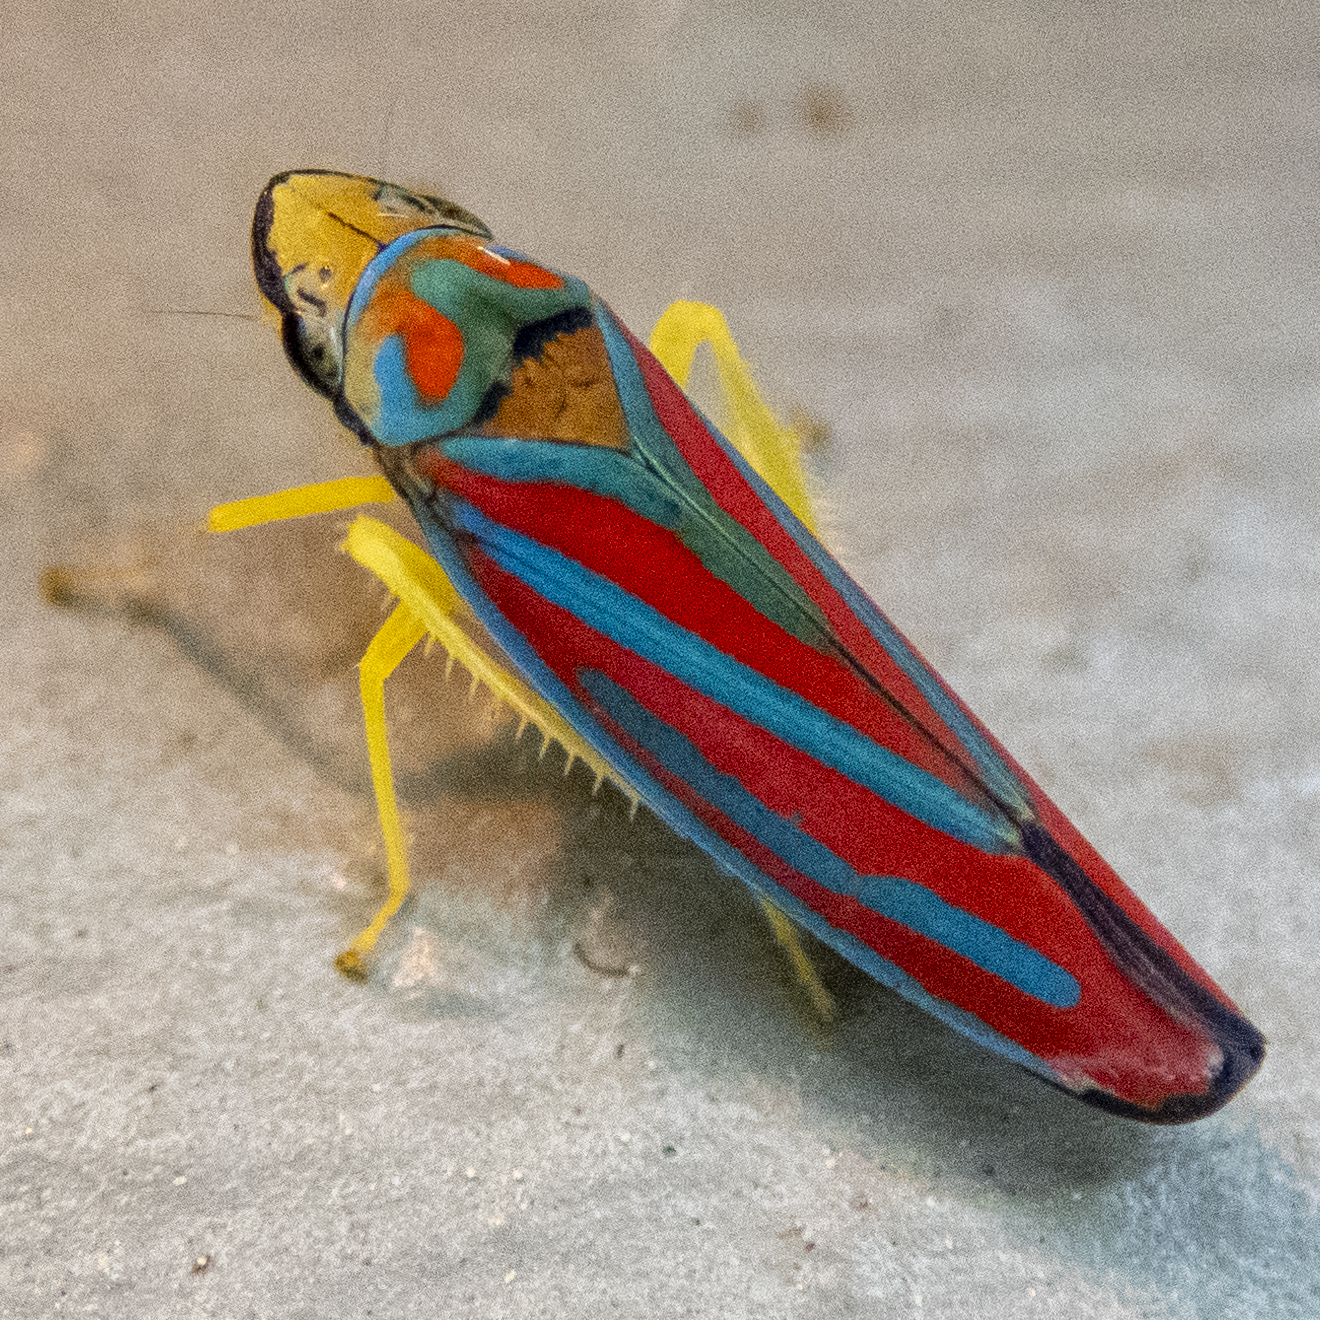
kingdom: Animalia
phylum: Arthropoda
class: Insecta
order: Hemiptera
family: Cicadellidae
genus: Graphocephala
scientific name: Graphocephala coccinea
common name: Candy-striped leafhopper
